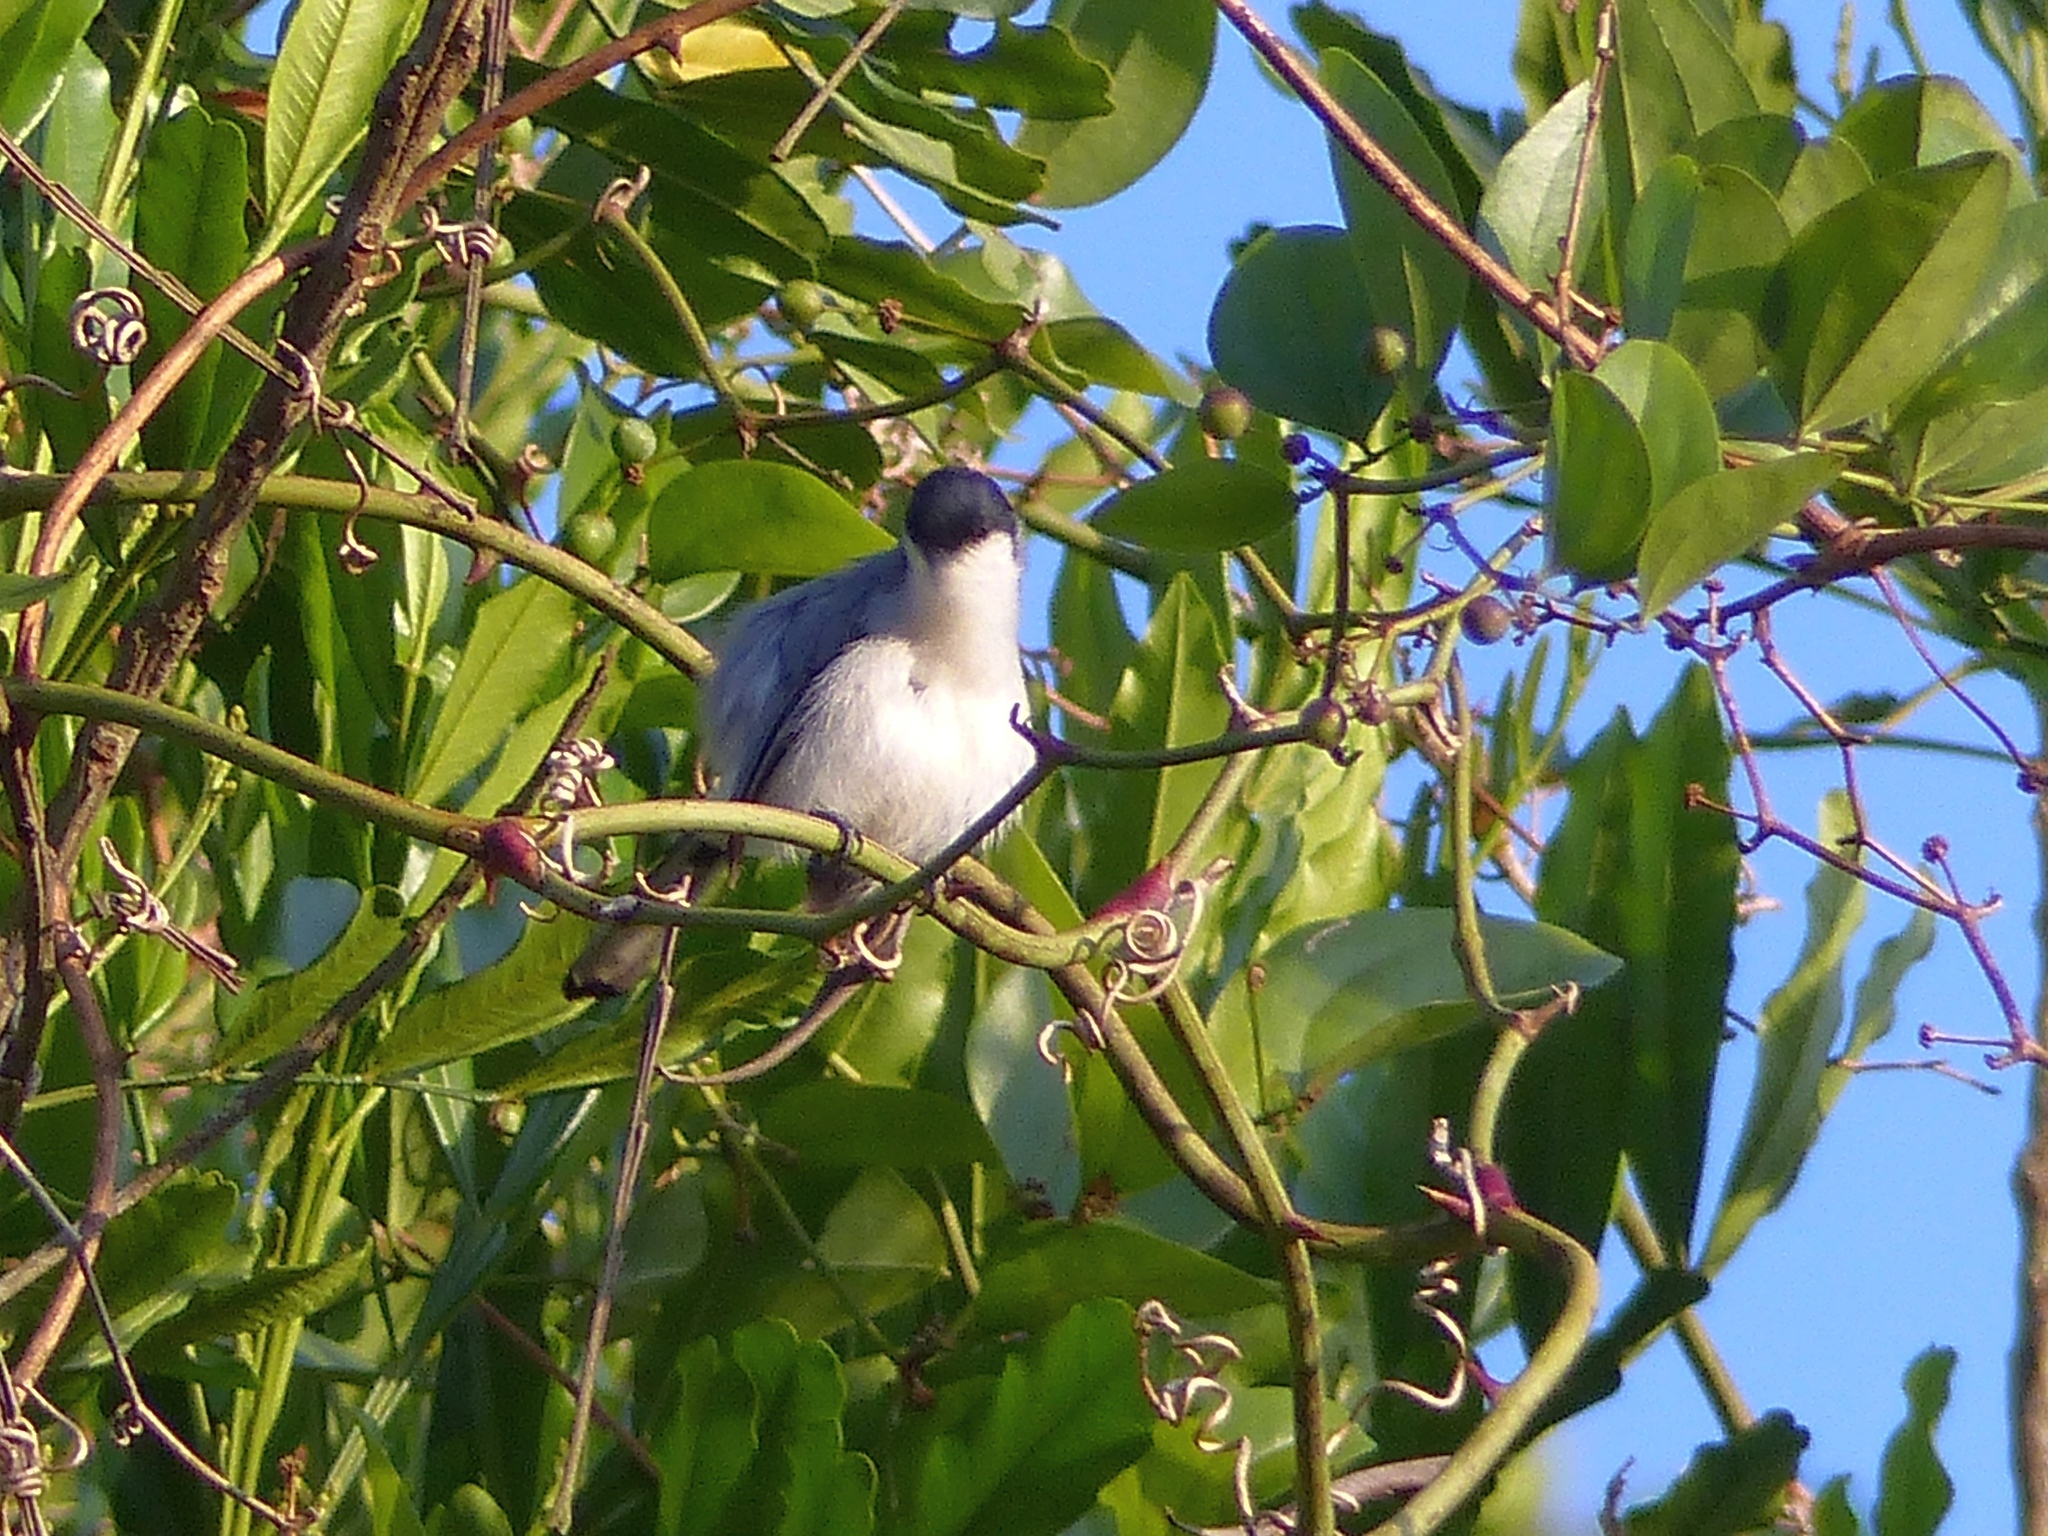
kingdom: Animalia
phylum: Chordata
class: Aves
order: Passeriformes
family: Polioptilidae
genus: Polioptila
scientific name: Polioptila plumbea
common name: Tropical gnatcatcher
